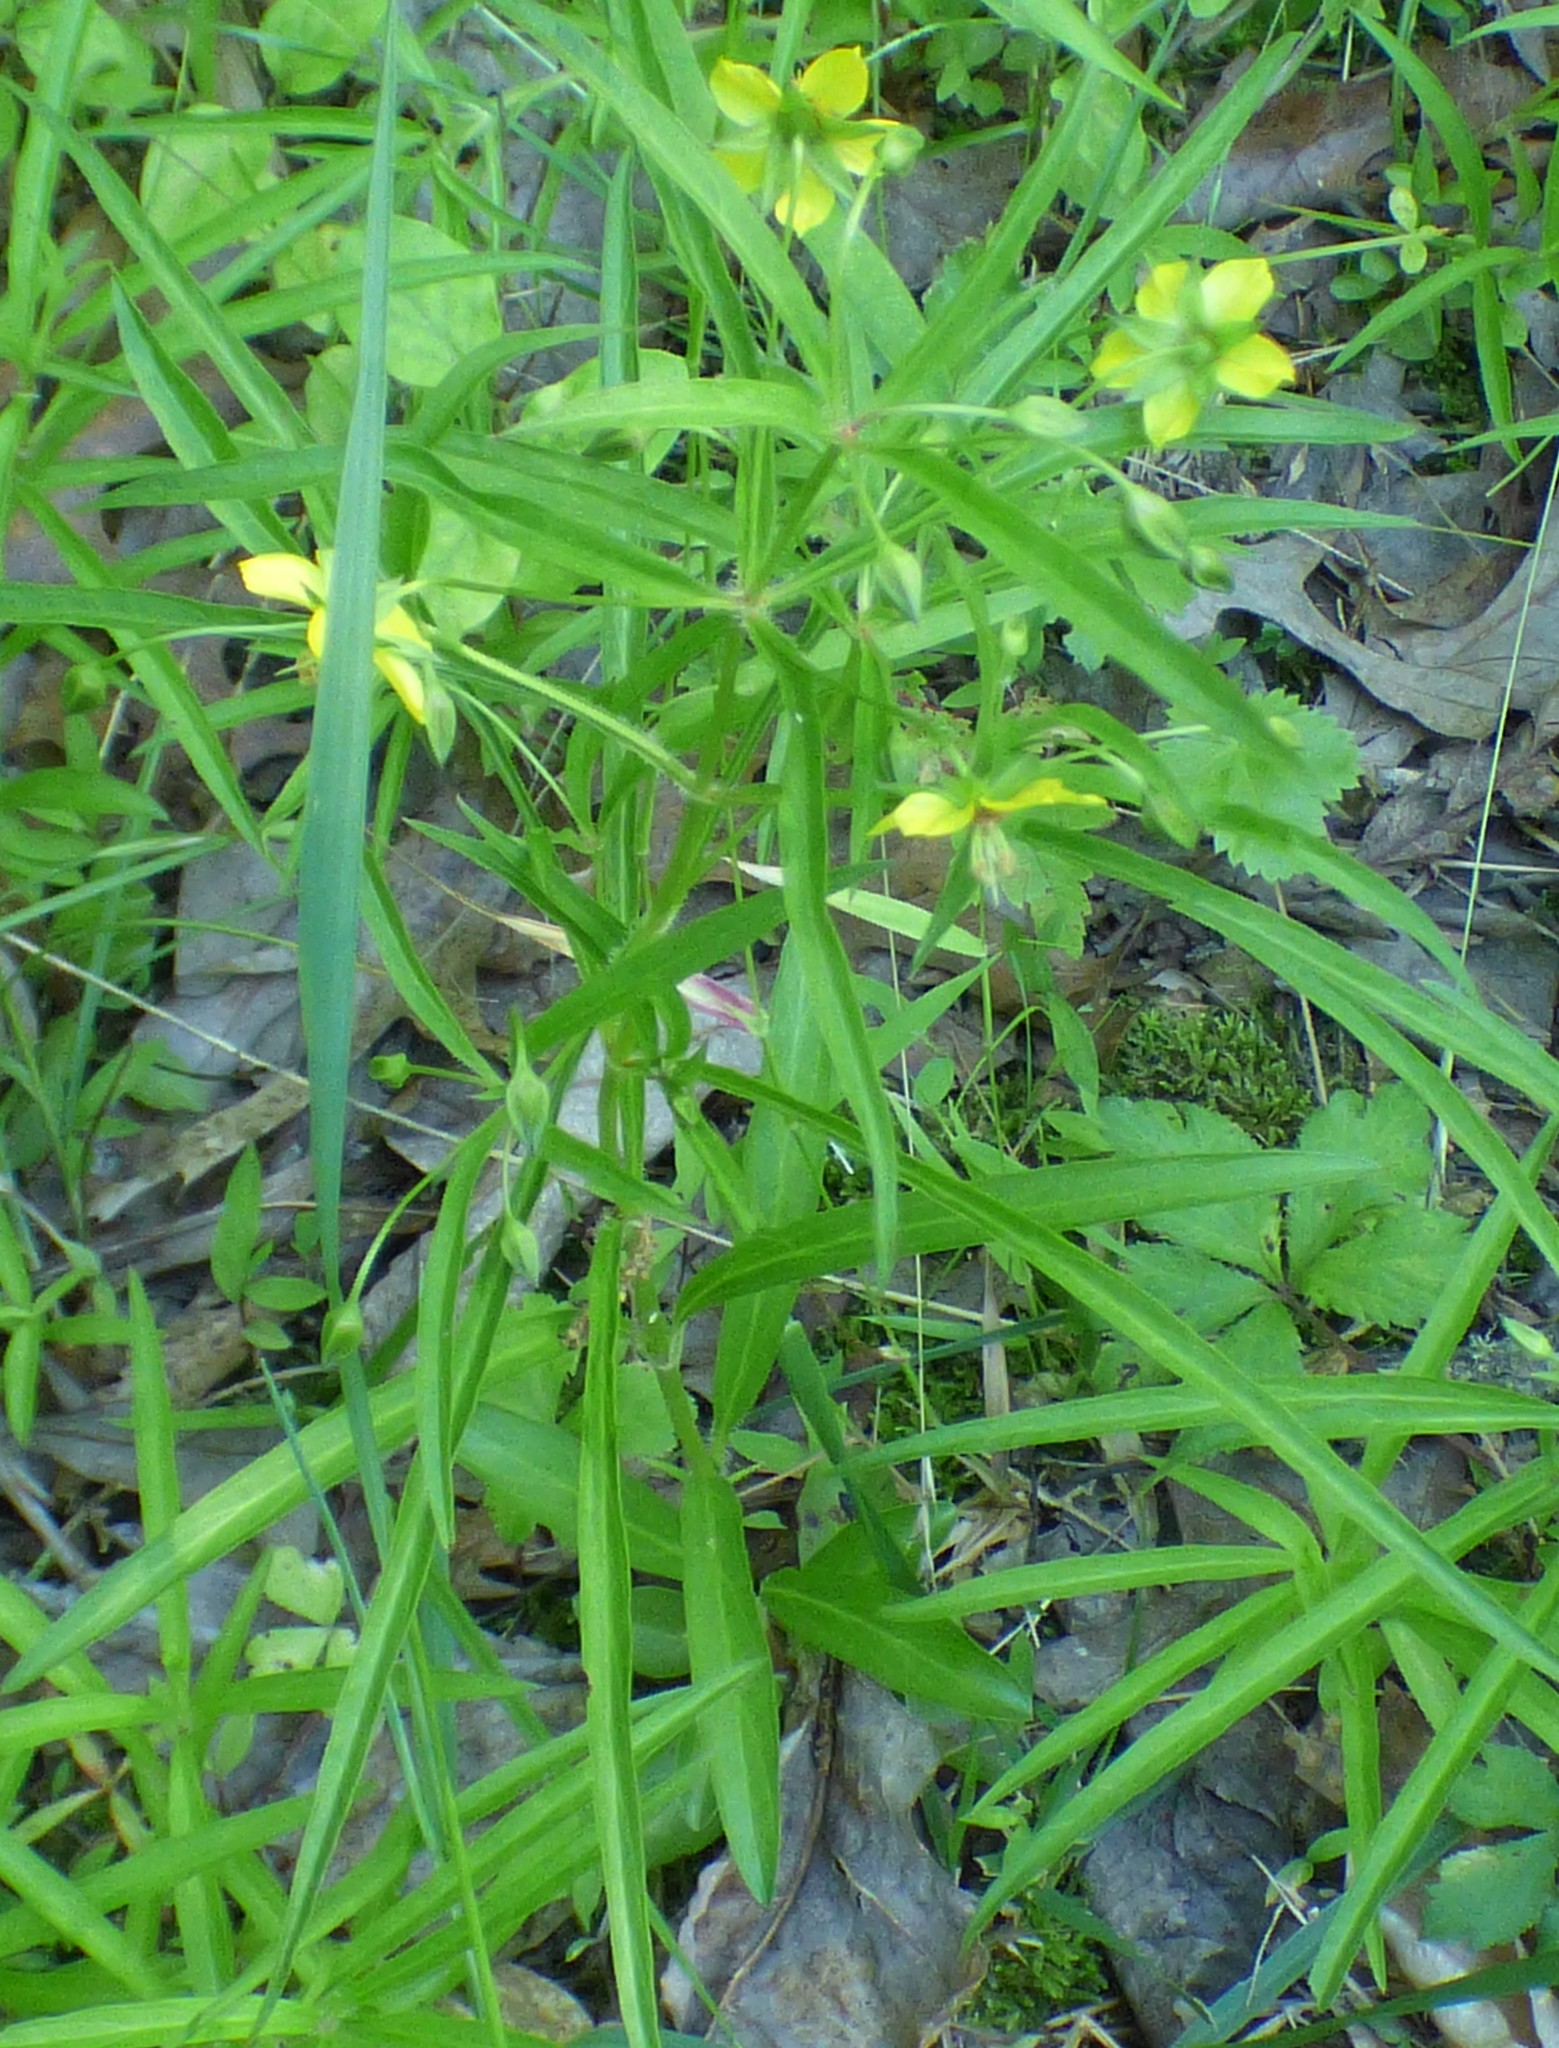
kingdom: Plantae
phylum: Tracheophyta
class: Magnoliopsida
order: Ericales
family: Primulaceae
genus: Lysimachia
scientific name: Lysimachia lanceolata
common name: Lance-leaved loosestrife
